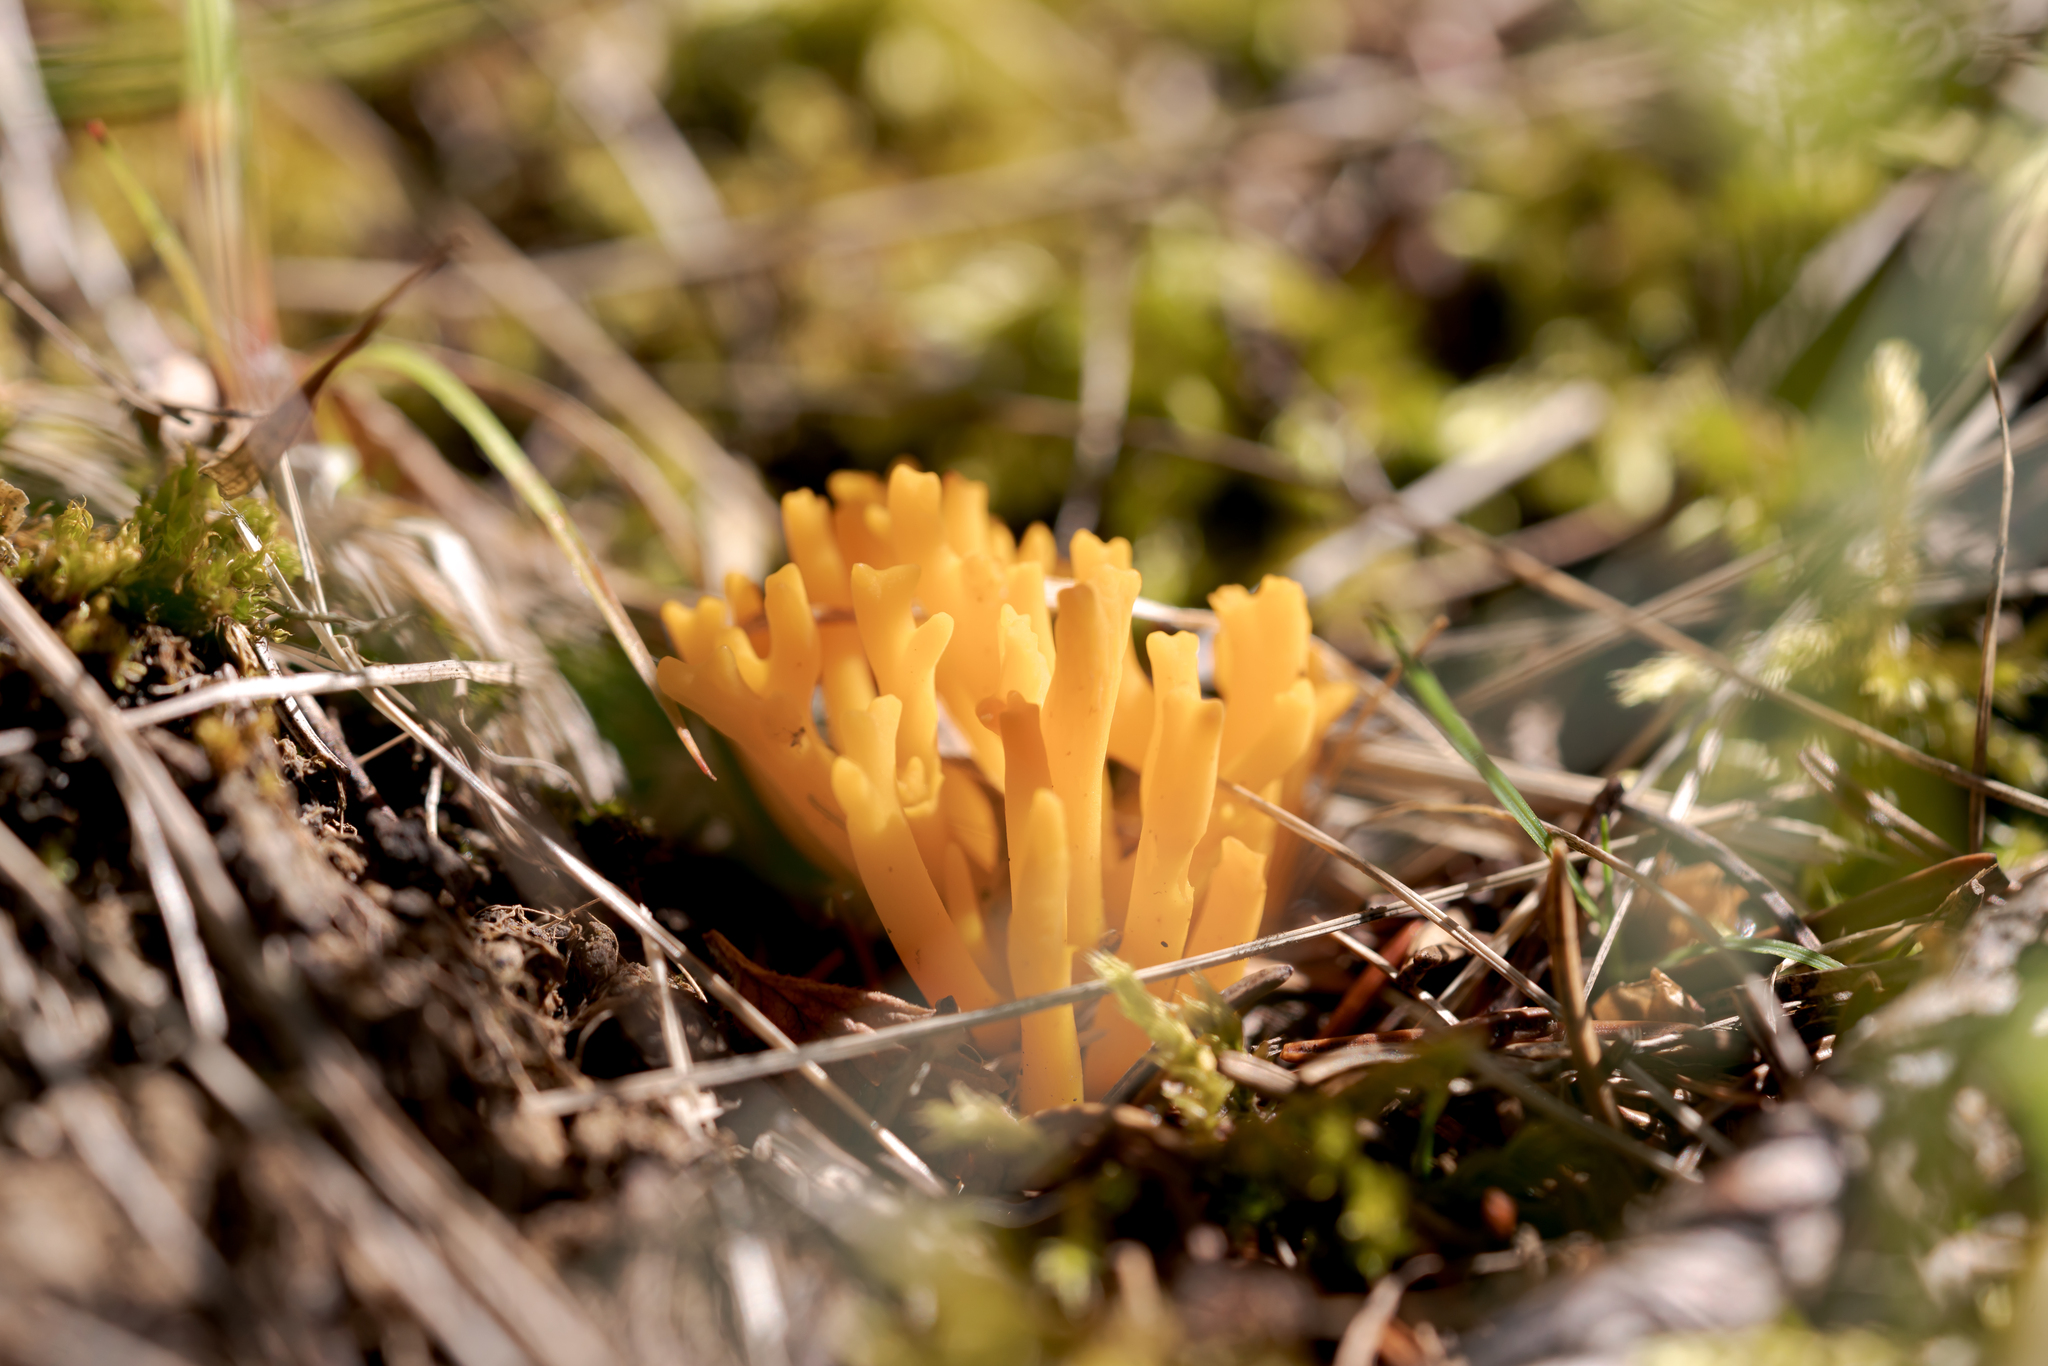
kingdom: Fungi
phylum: Basidiomycota
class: Dacrymycetes
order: Dacrymycetales
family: Dacrymycetaceae
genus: Calocera
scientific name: Calocera viscosa
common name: Yellow stagshorn
